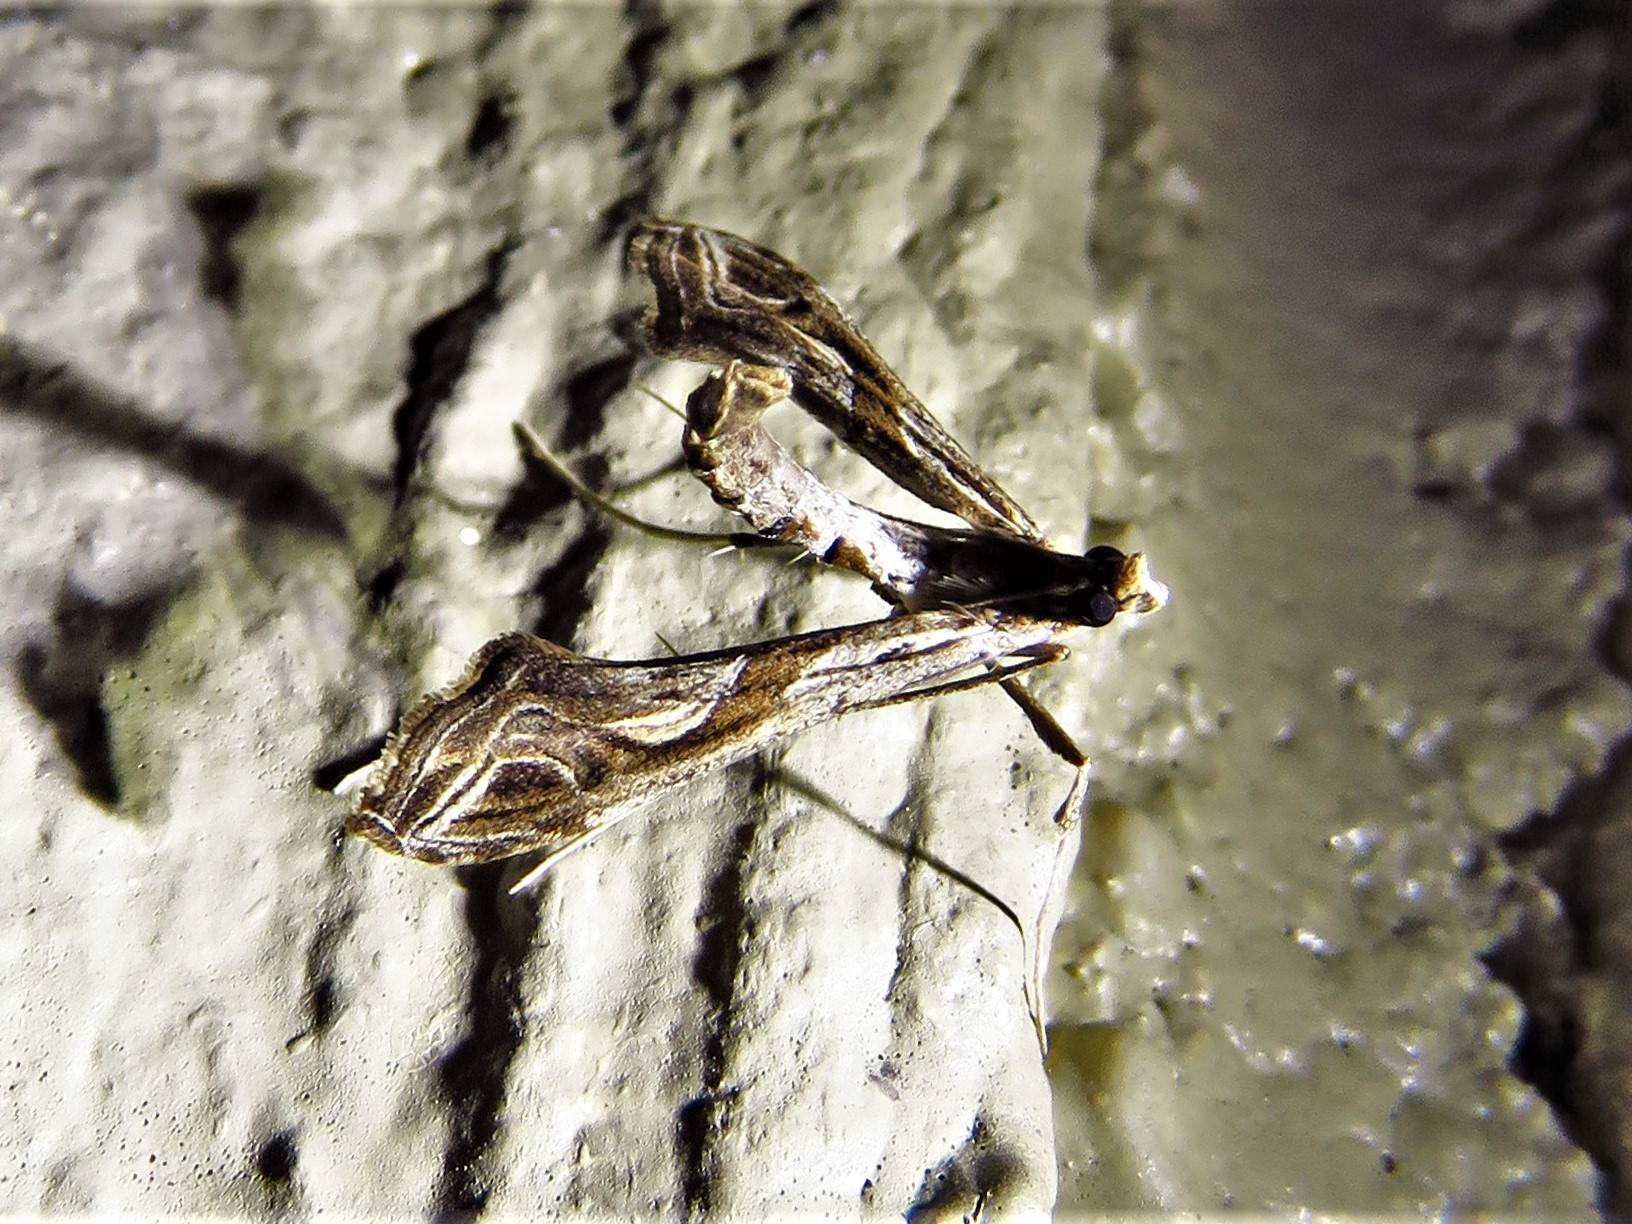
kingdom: Animalia
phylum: Arthropoda
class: Insecta
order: Lepidoptera
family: Crambidae
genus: Lineodes
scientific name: Lineodes integra
